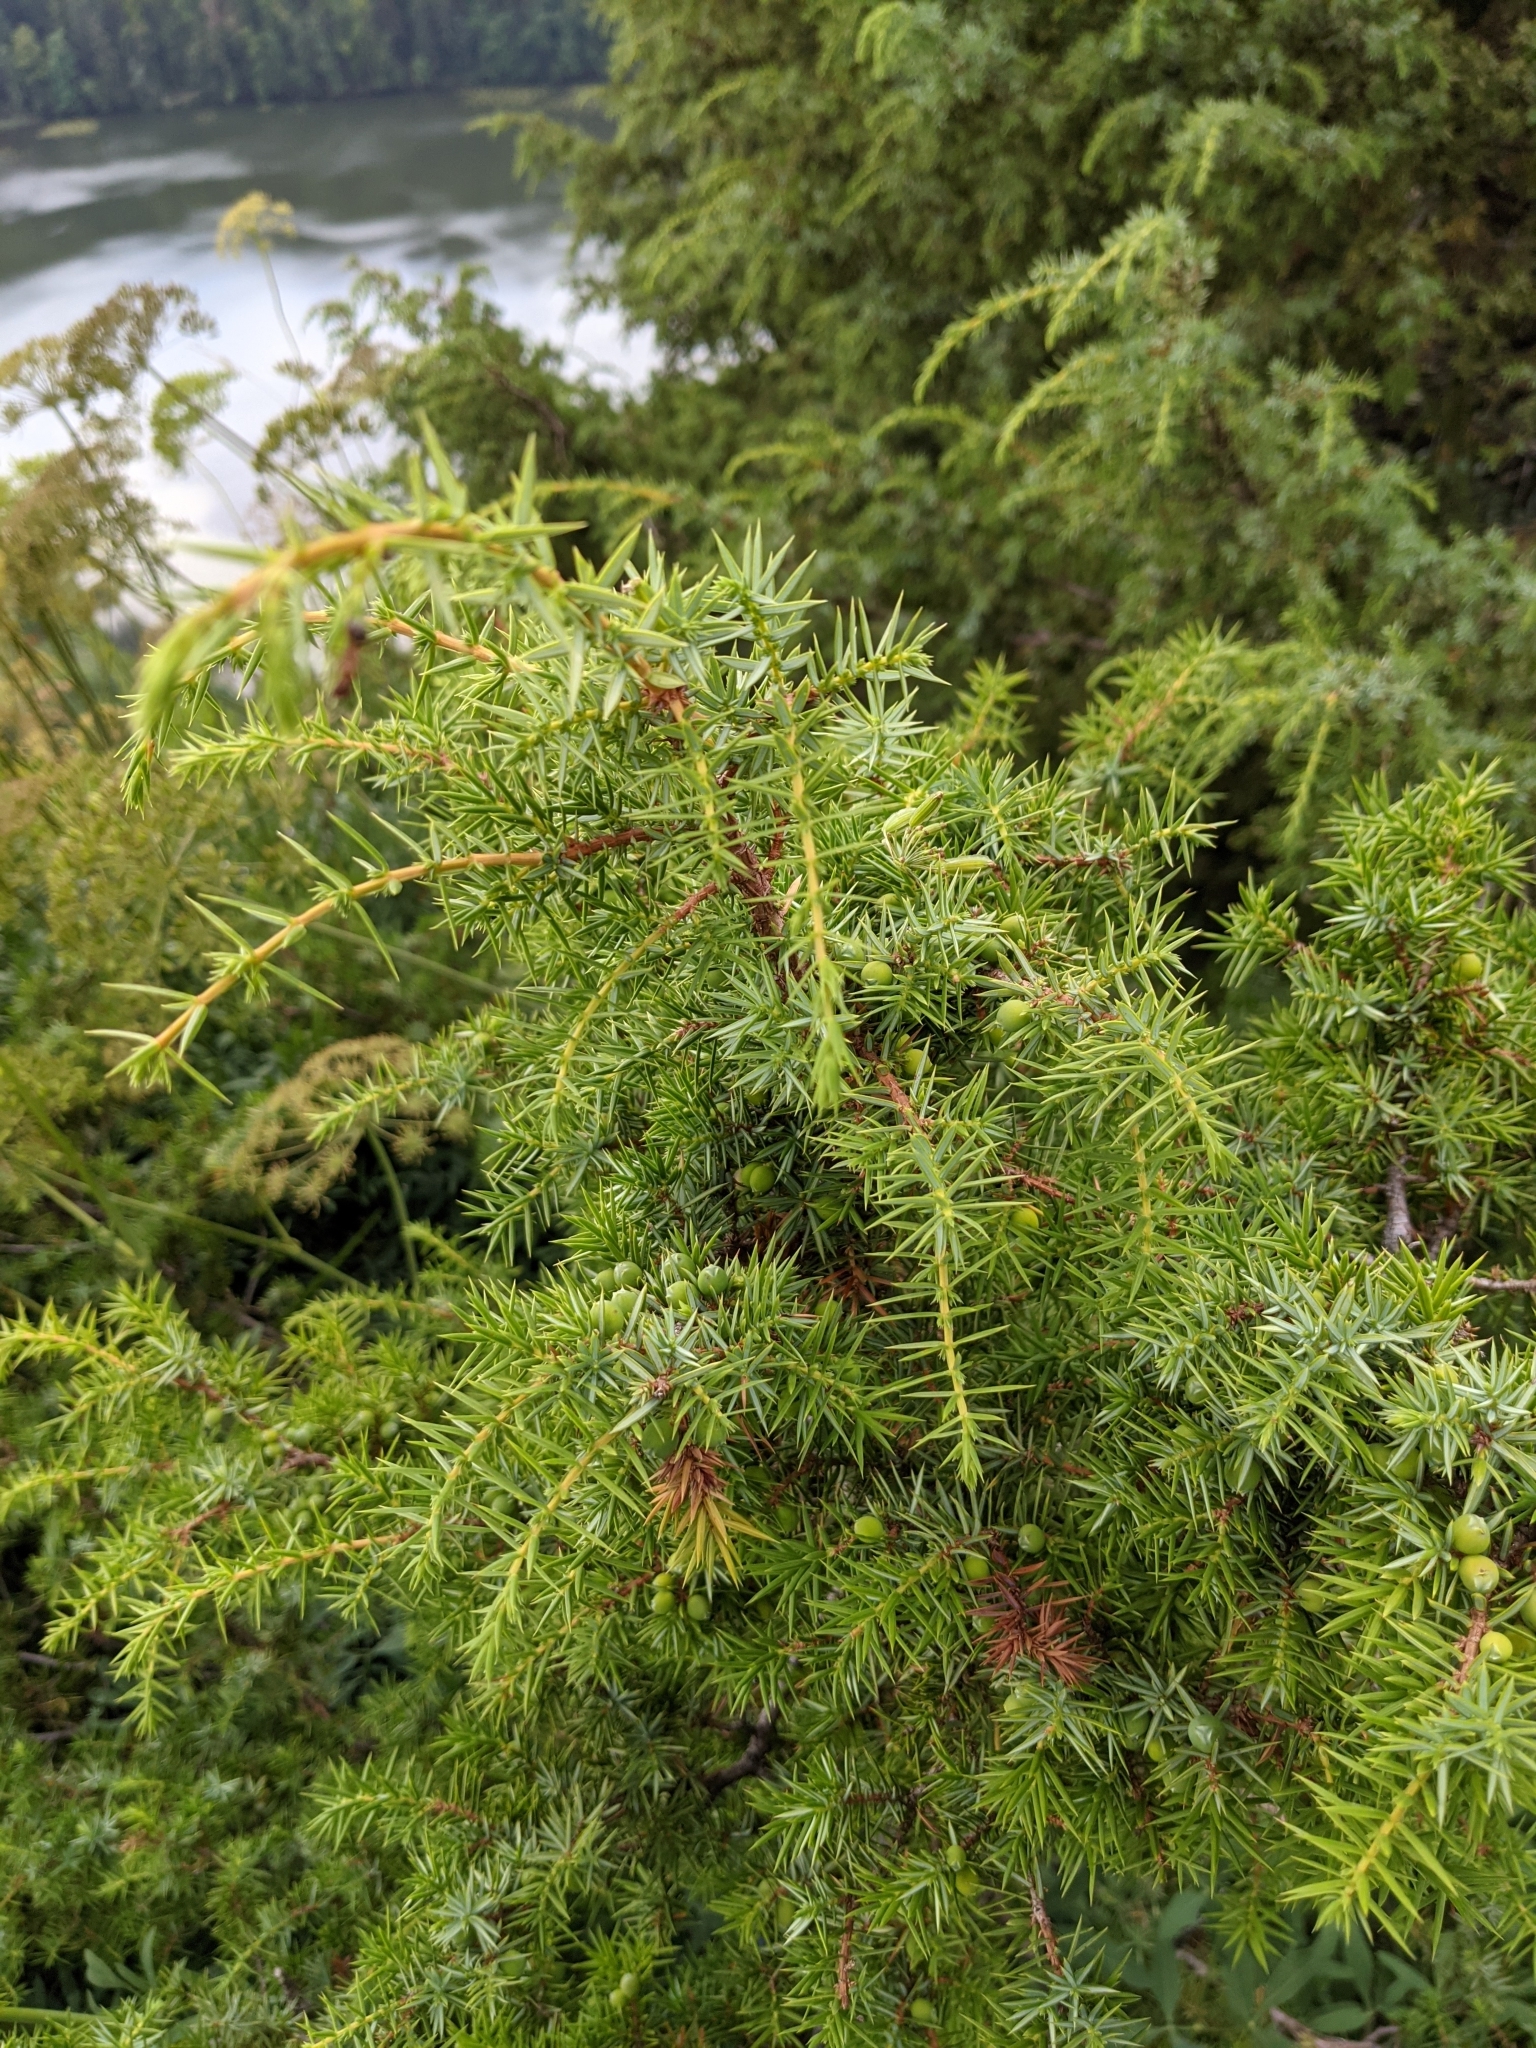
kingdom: Plantae
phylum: Tracheophyta
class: Pinopsida
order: Pinales
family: Cupressaceae
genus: Juniperus
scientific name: Juniperus communis
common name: Common juniper
